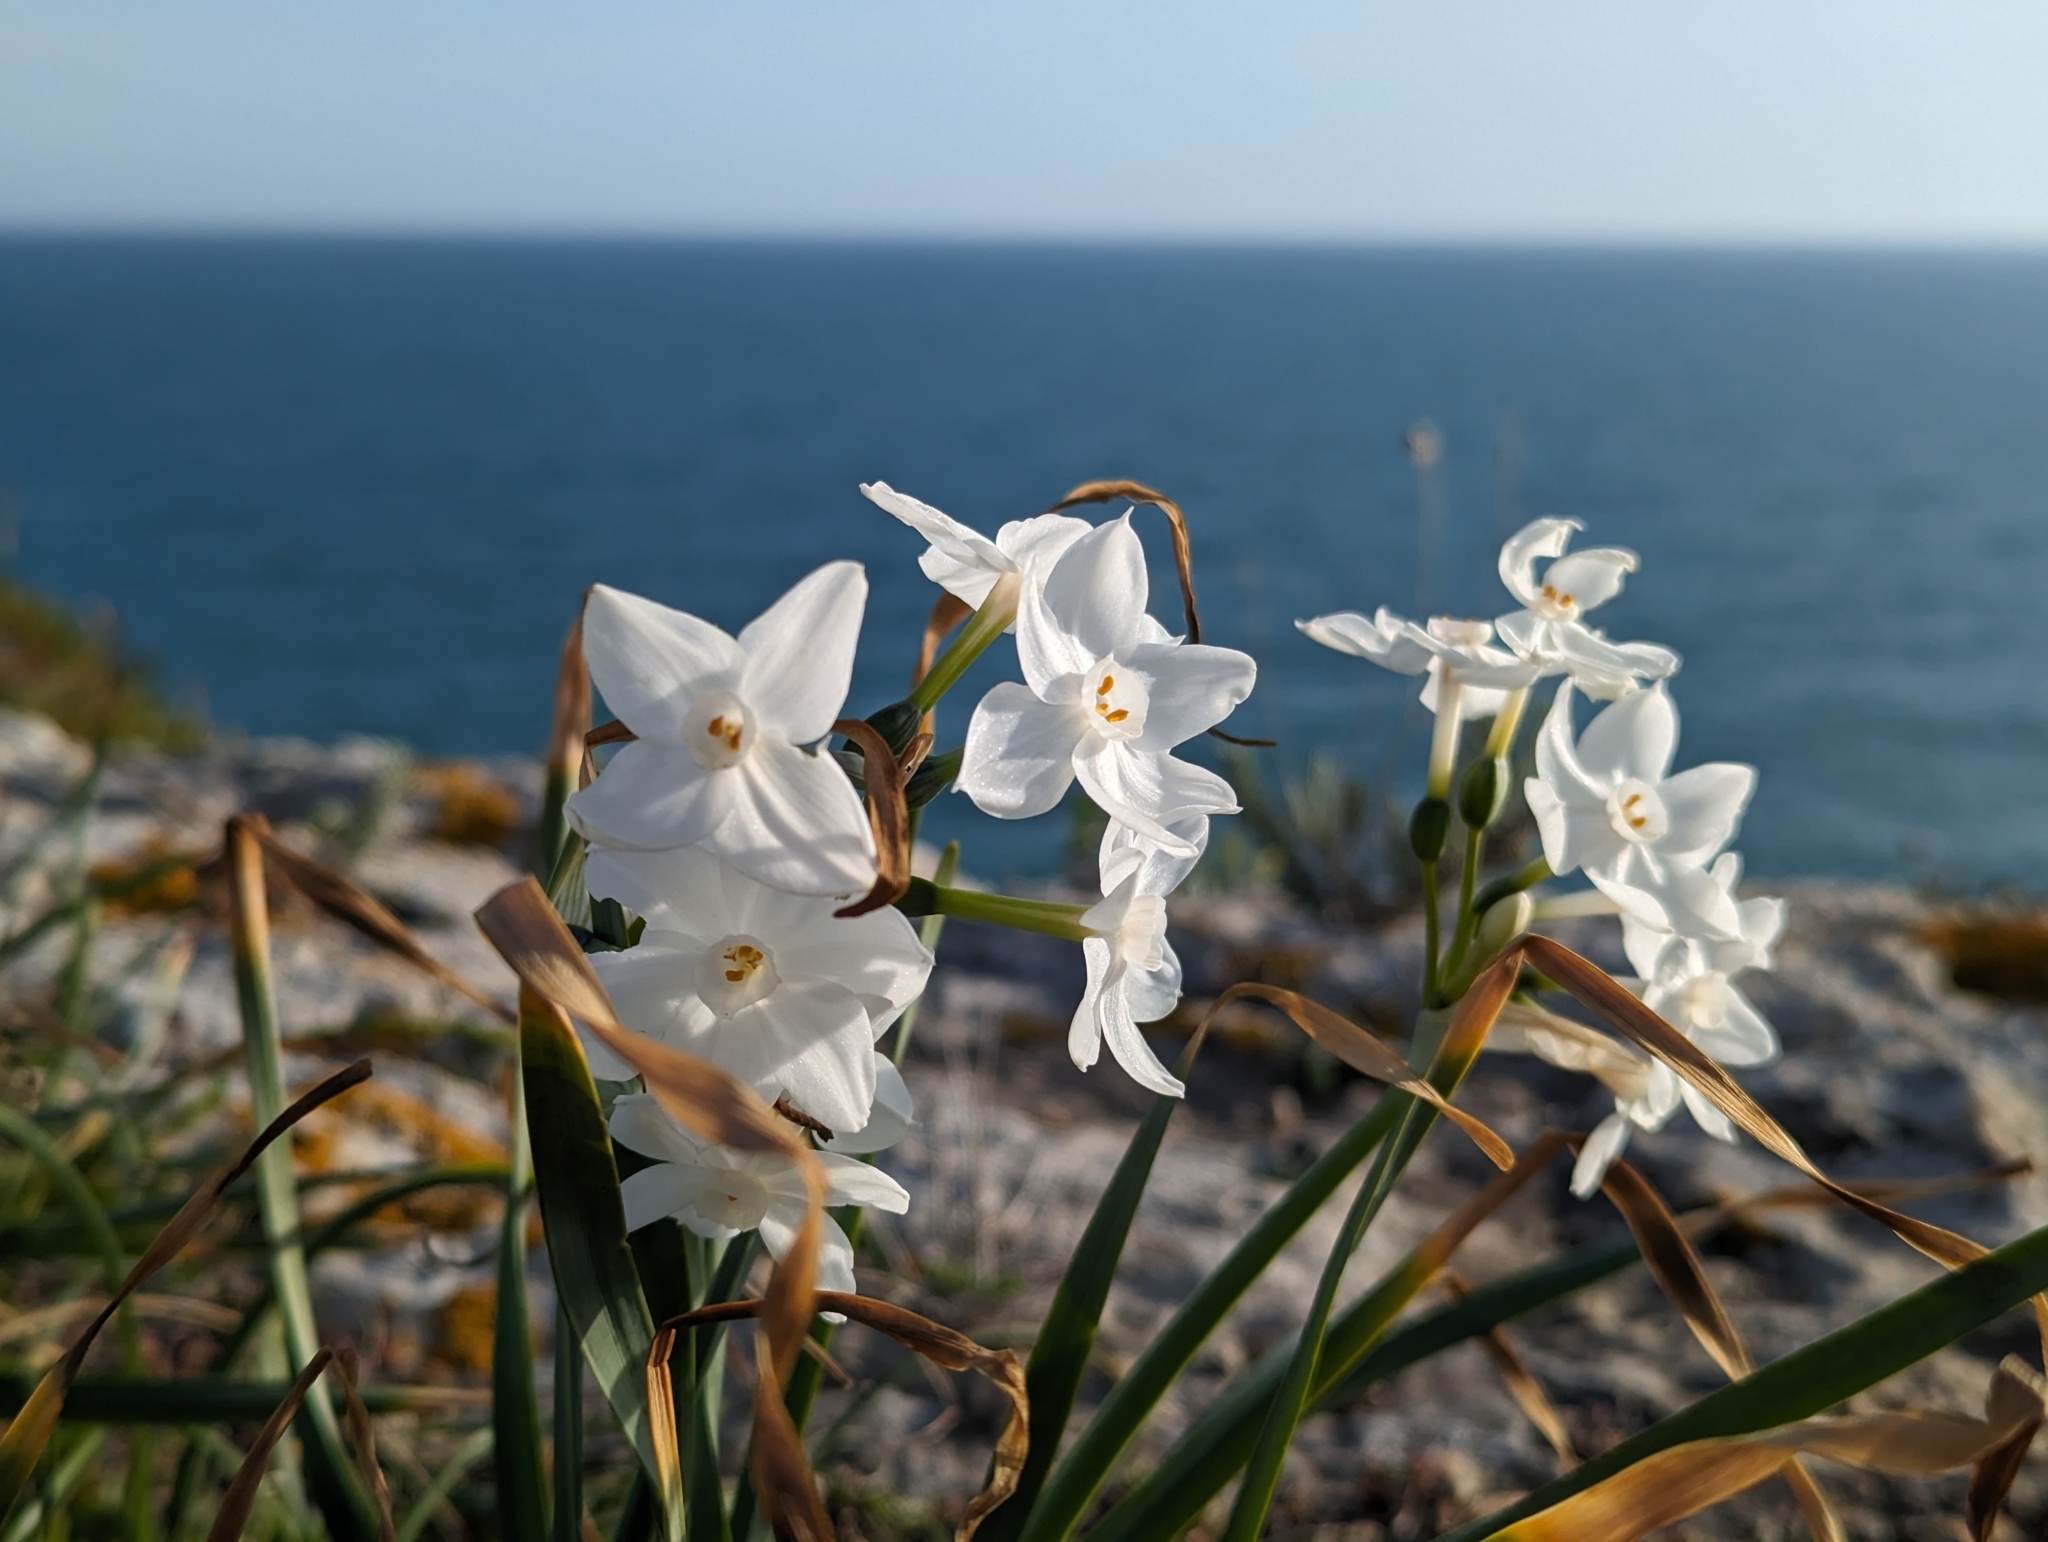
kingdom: Plantae
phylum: Tracheophyta
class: Liliopsida
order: Asparagales
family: Amaryllidaceae
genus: Narcissus
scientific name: Narcissus papyraceus
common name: Paper-white daffodil
